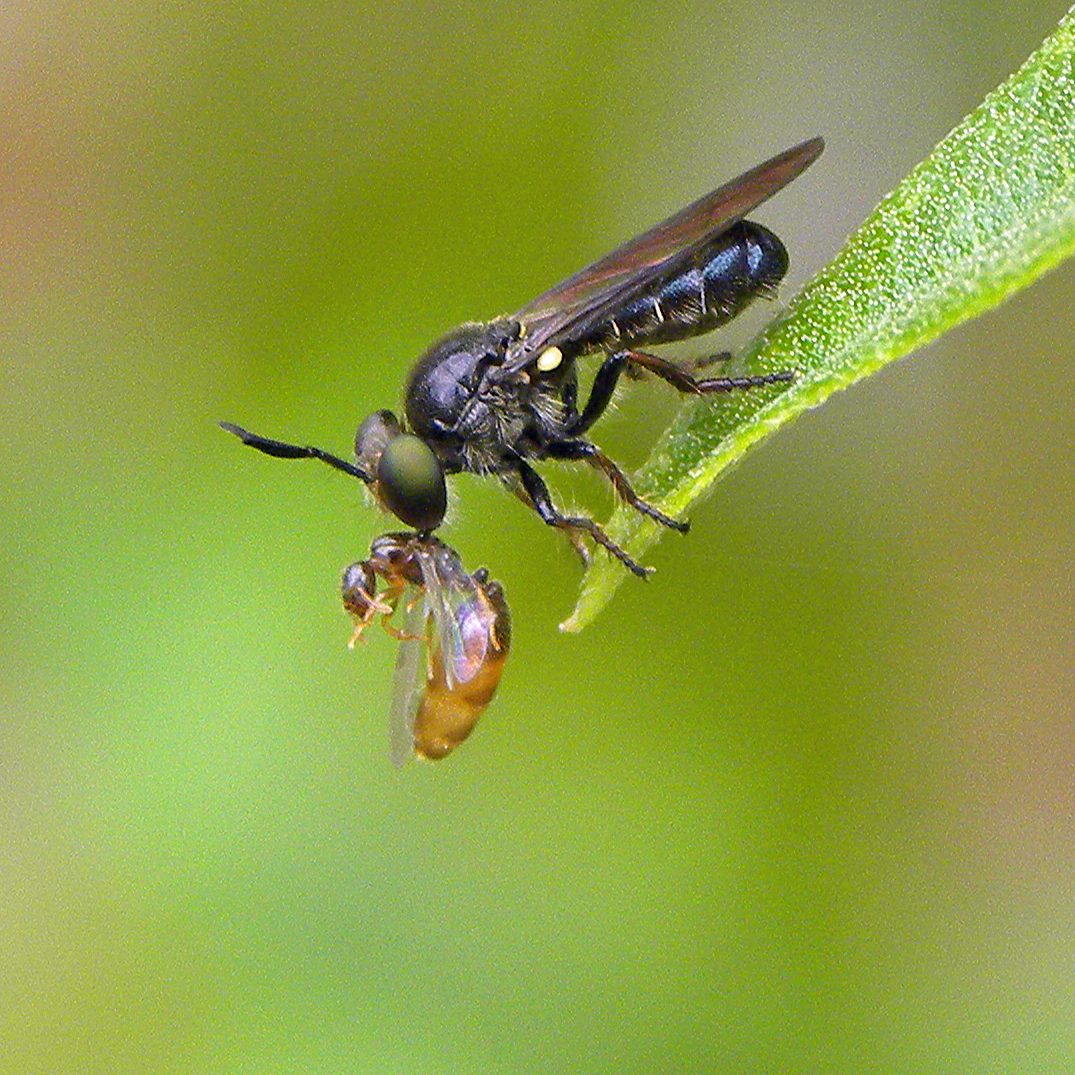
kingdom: Animalia
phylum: Arthropoda
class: Insecta
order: Diptera
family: Asilidae
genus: Cerotainia
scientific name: Cerotainia macrocera
